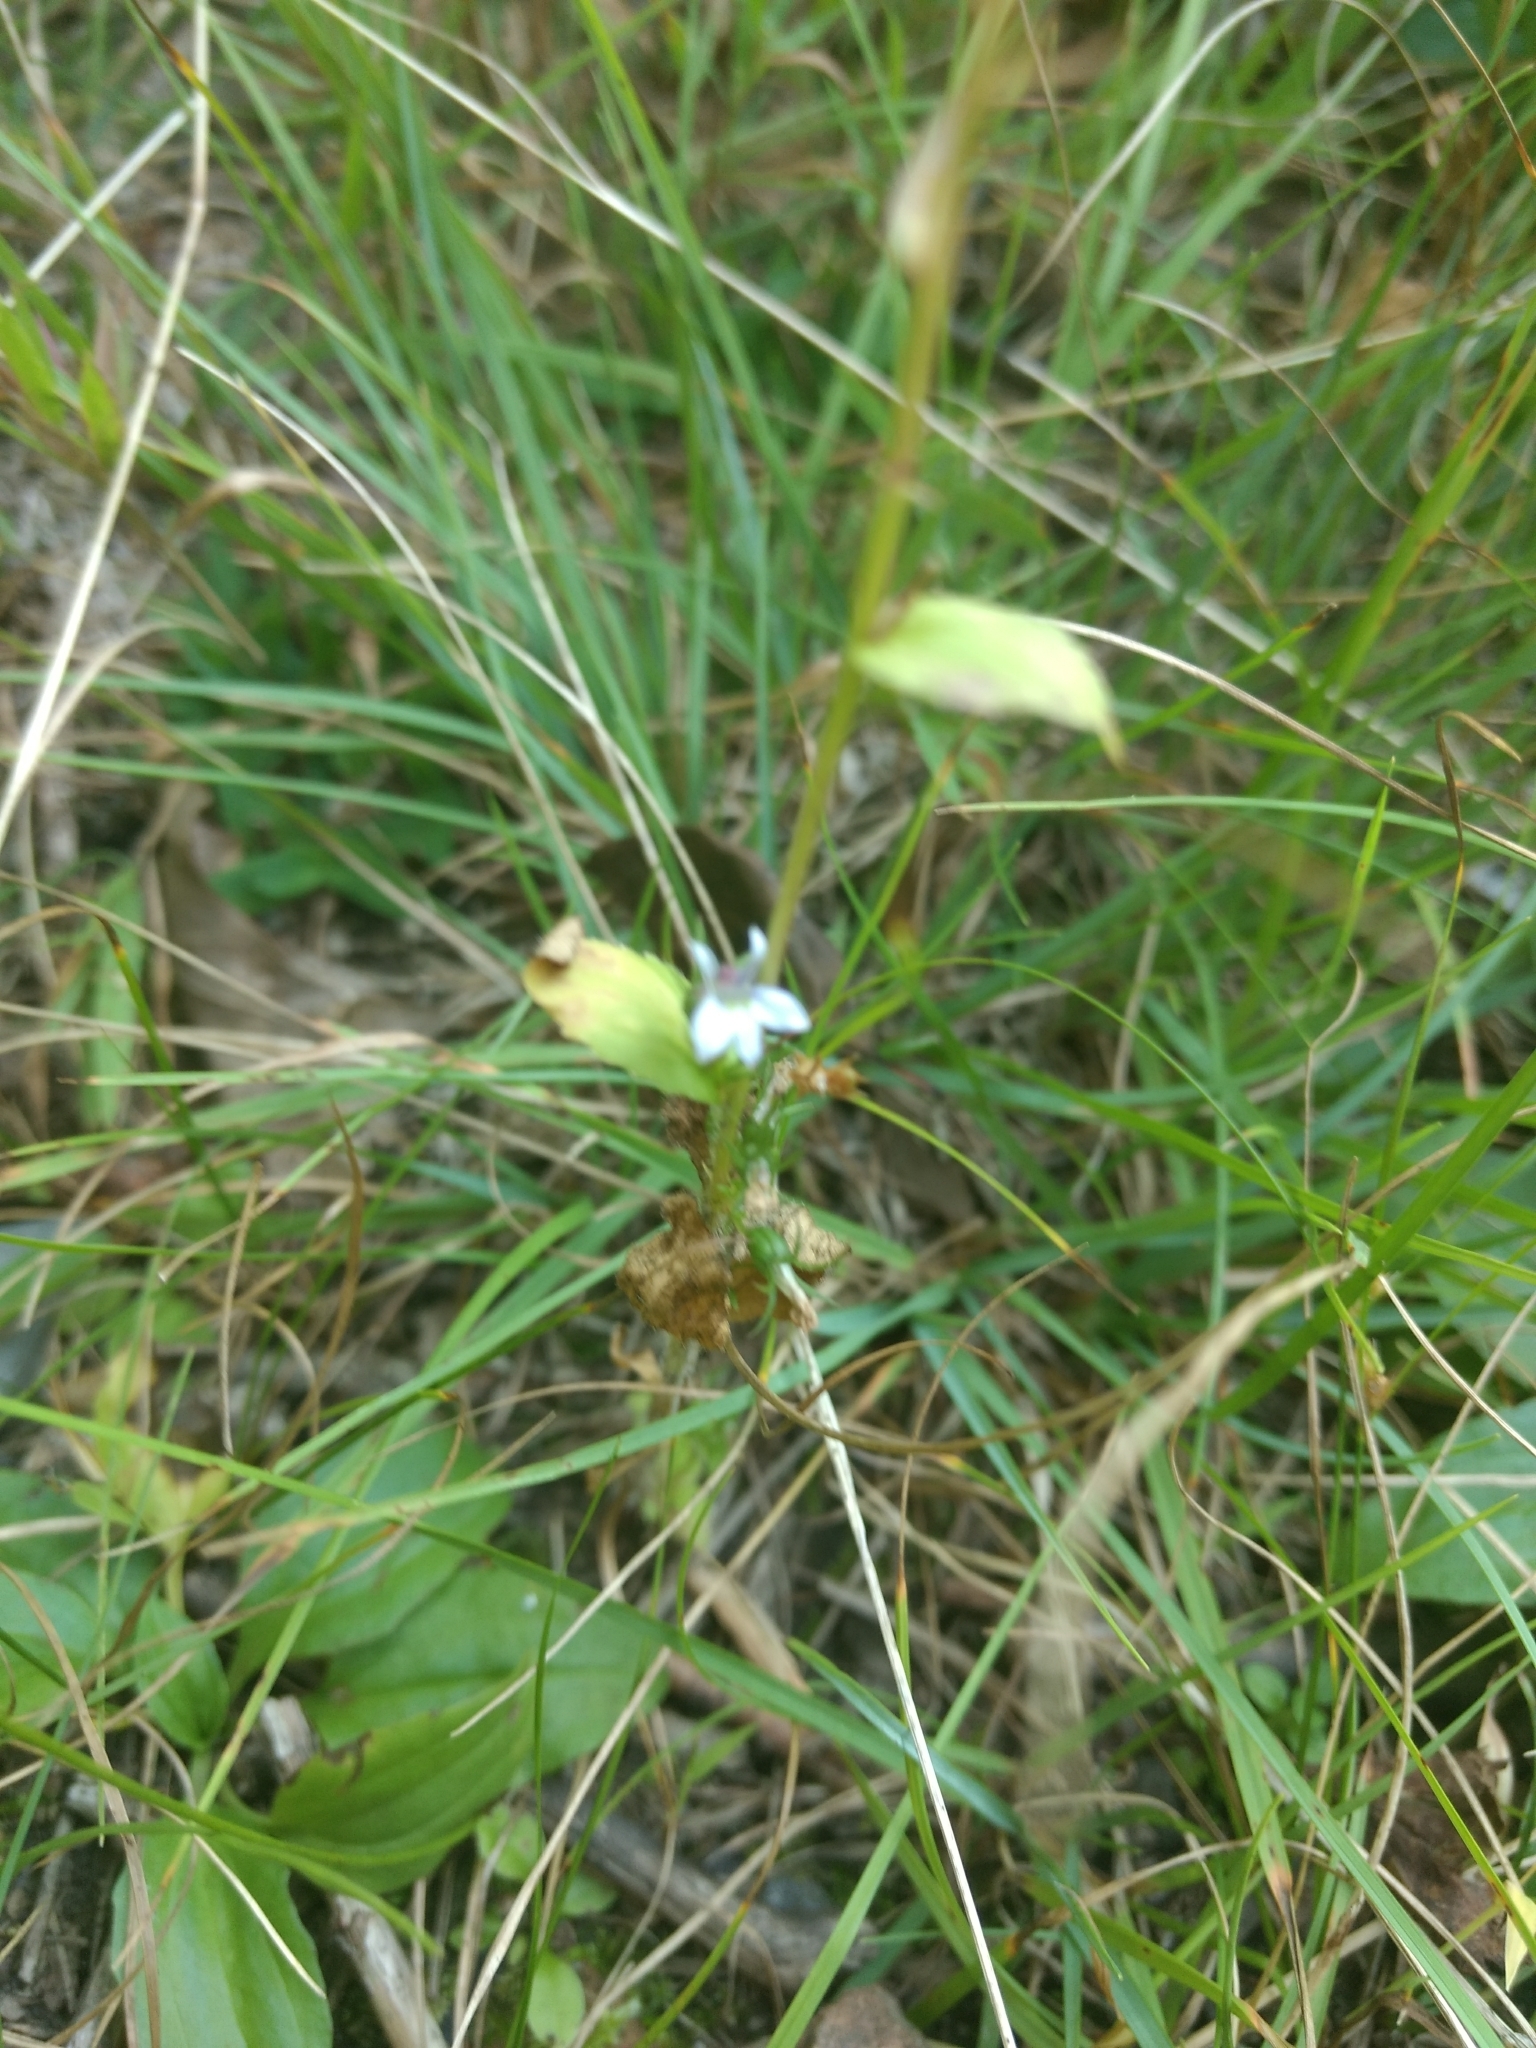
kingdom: Plantae
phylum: Tracheophyta
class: Magnoliopsida
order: Asterales
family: Campanulaceae
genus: Lobelia
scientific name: Lobelia inflata
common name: Indian tobacco
